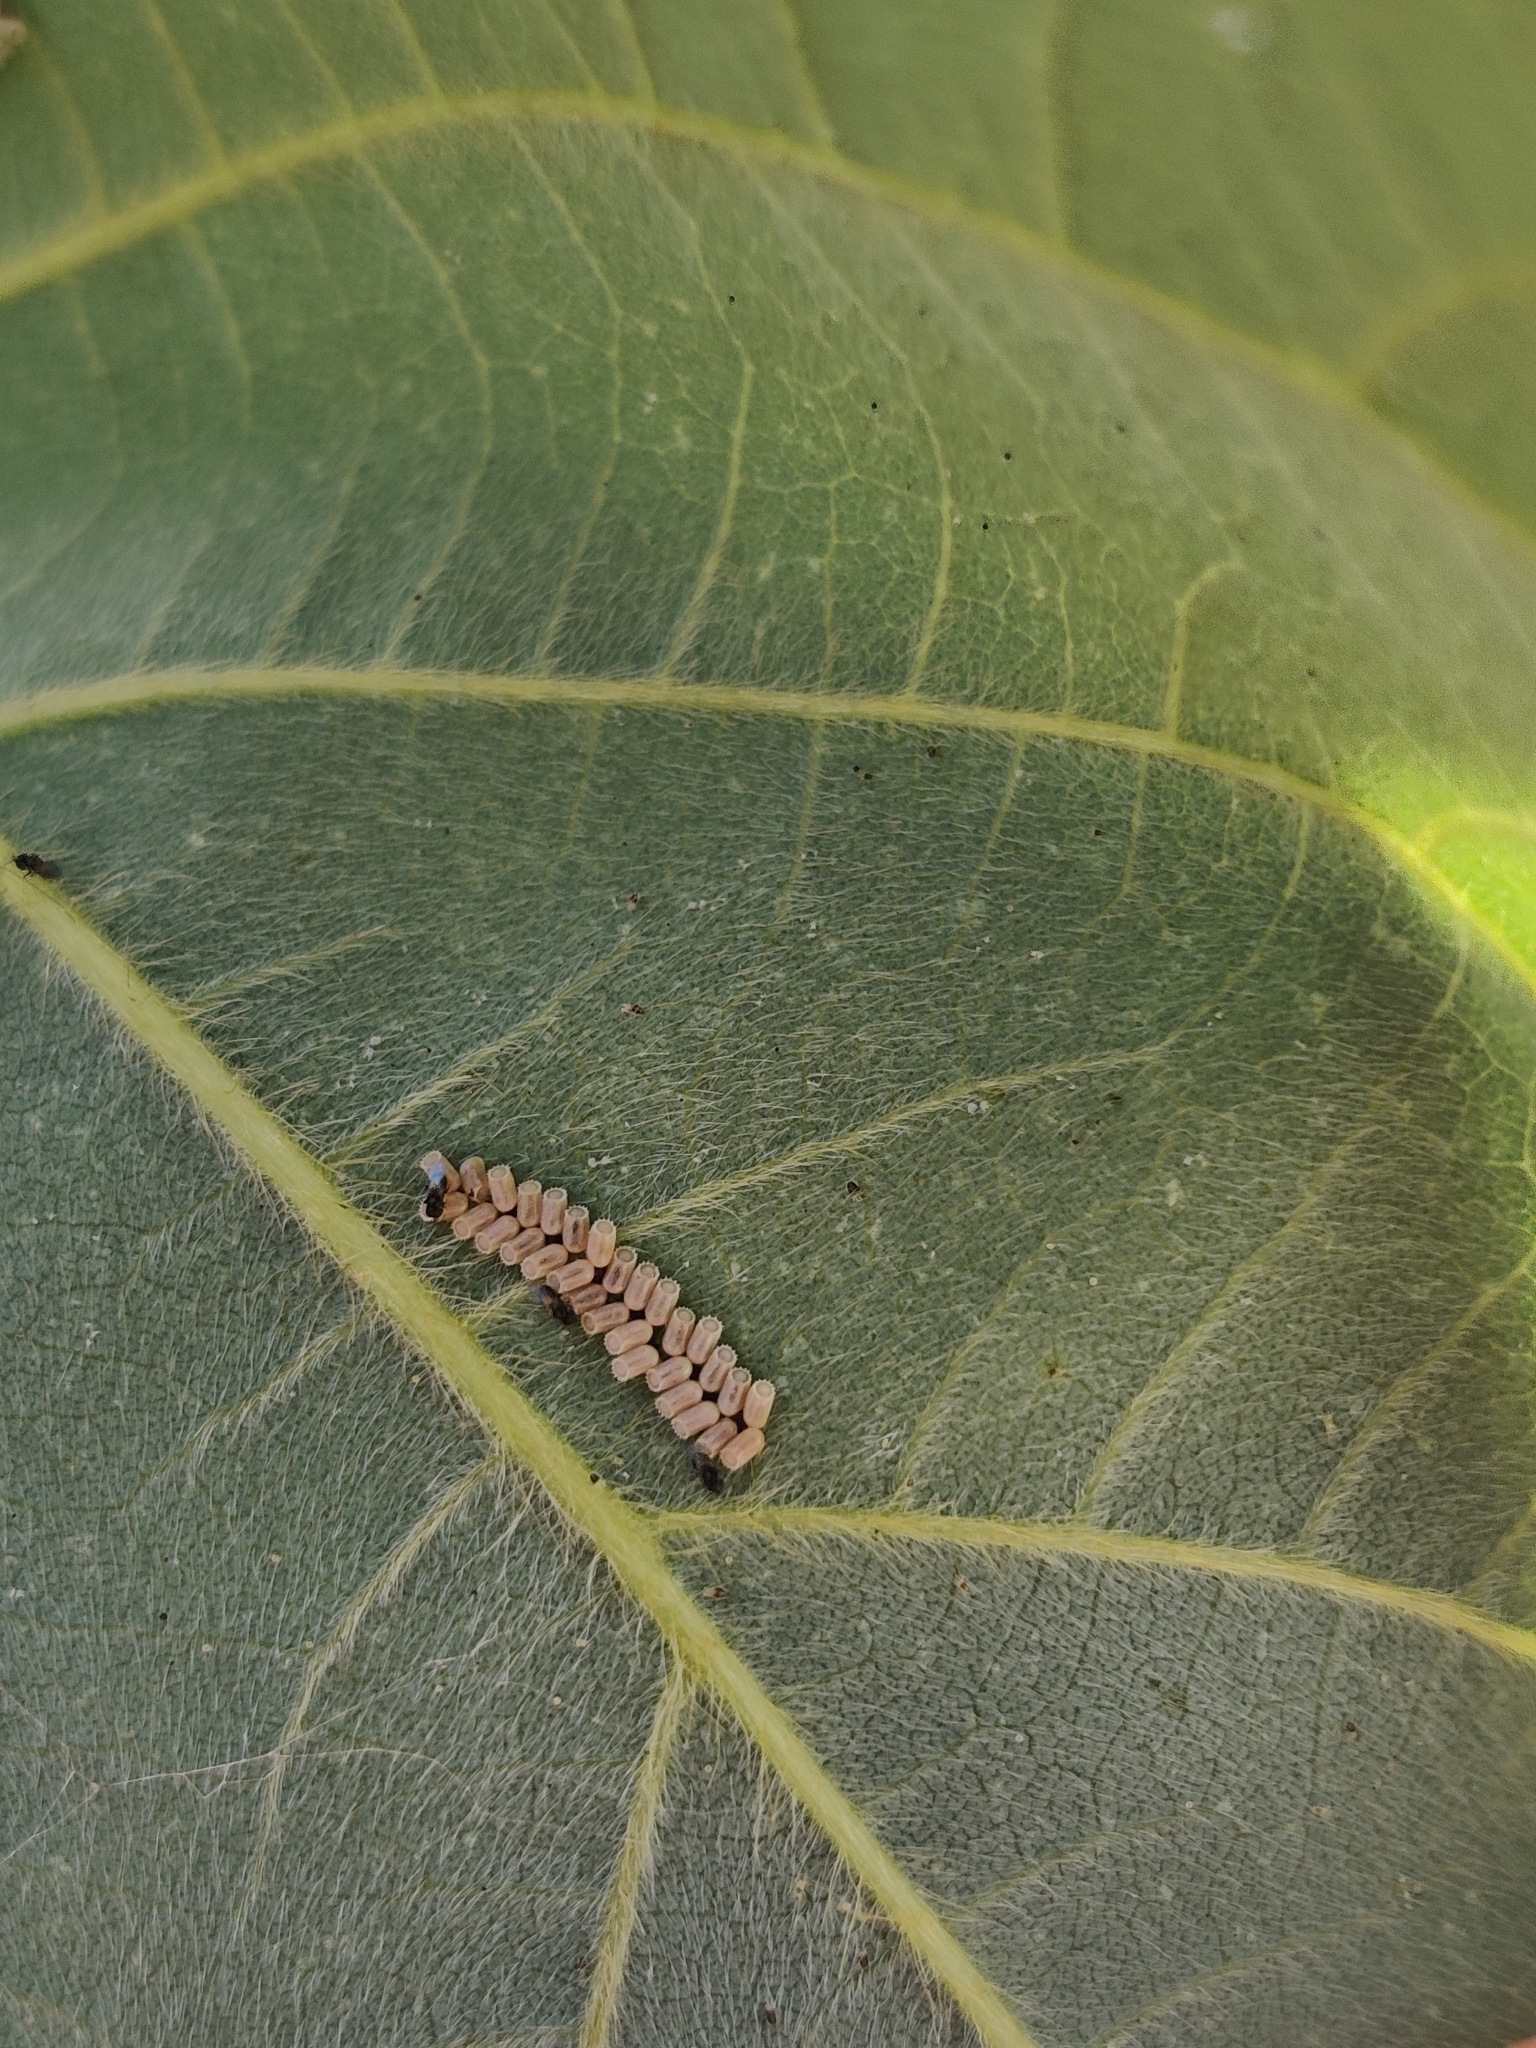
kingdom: Animalia
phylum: Arthropoda
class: Insecta
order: Hemiptera
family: Plataspidae
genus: Megacopta
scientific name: Megacopta cribraria
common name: Bean plataspid
